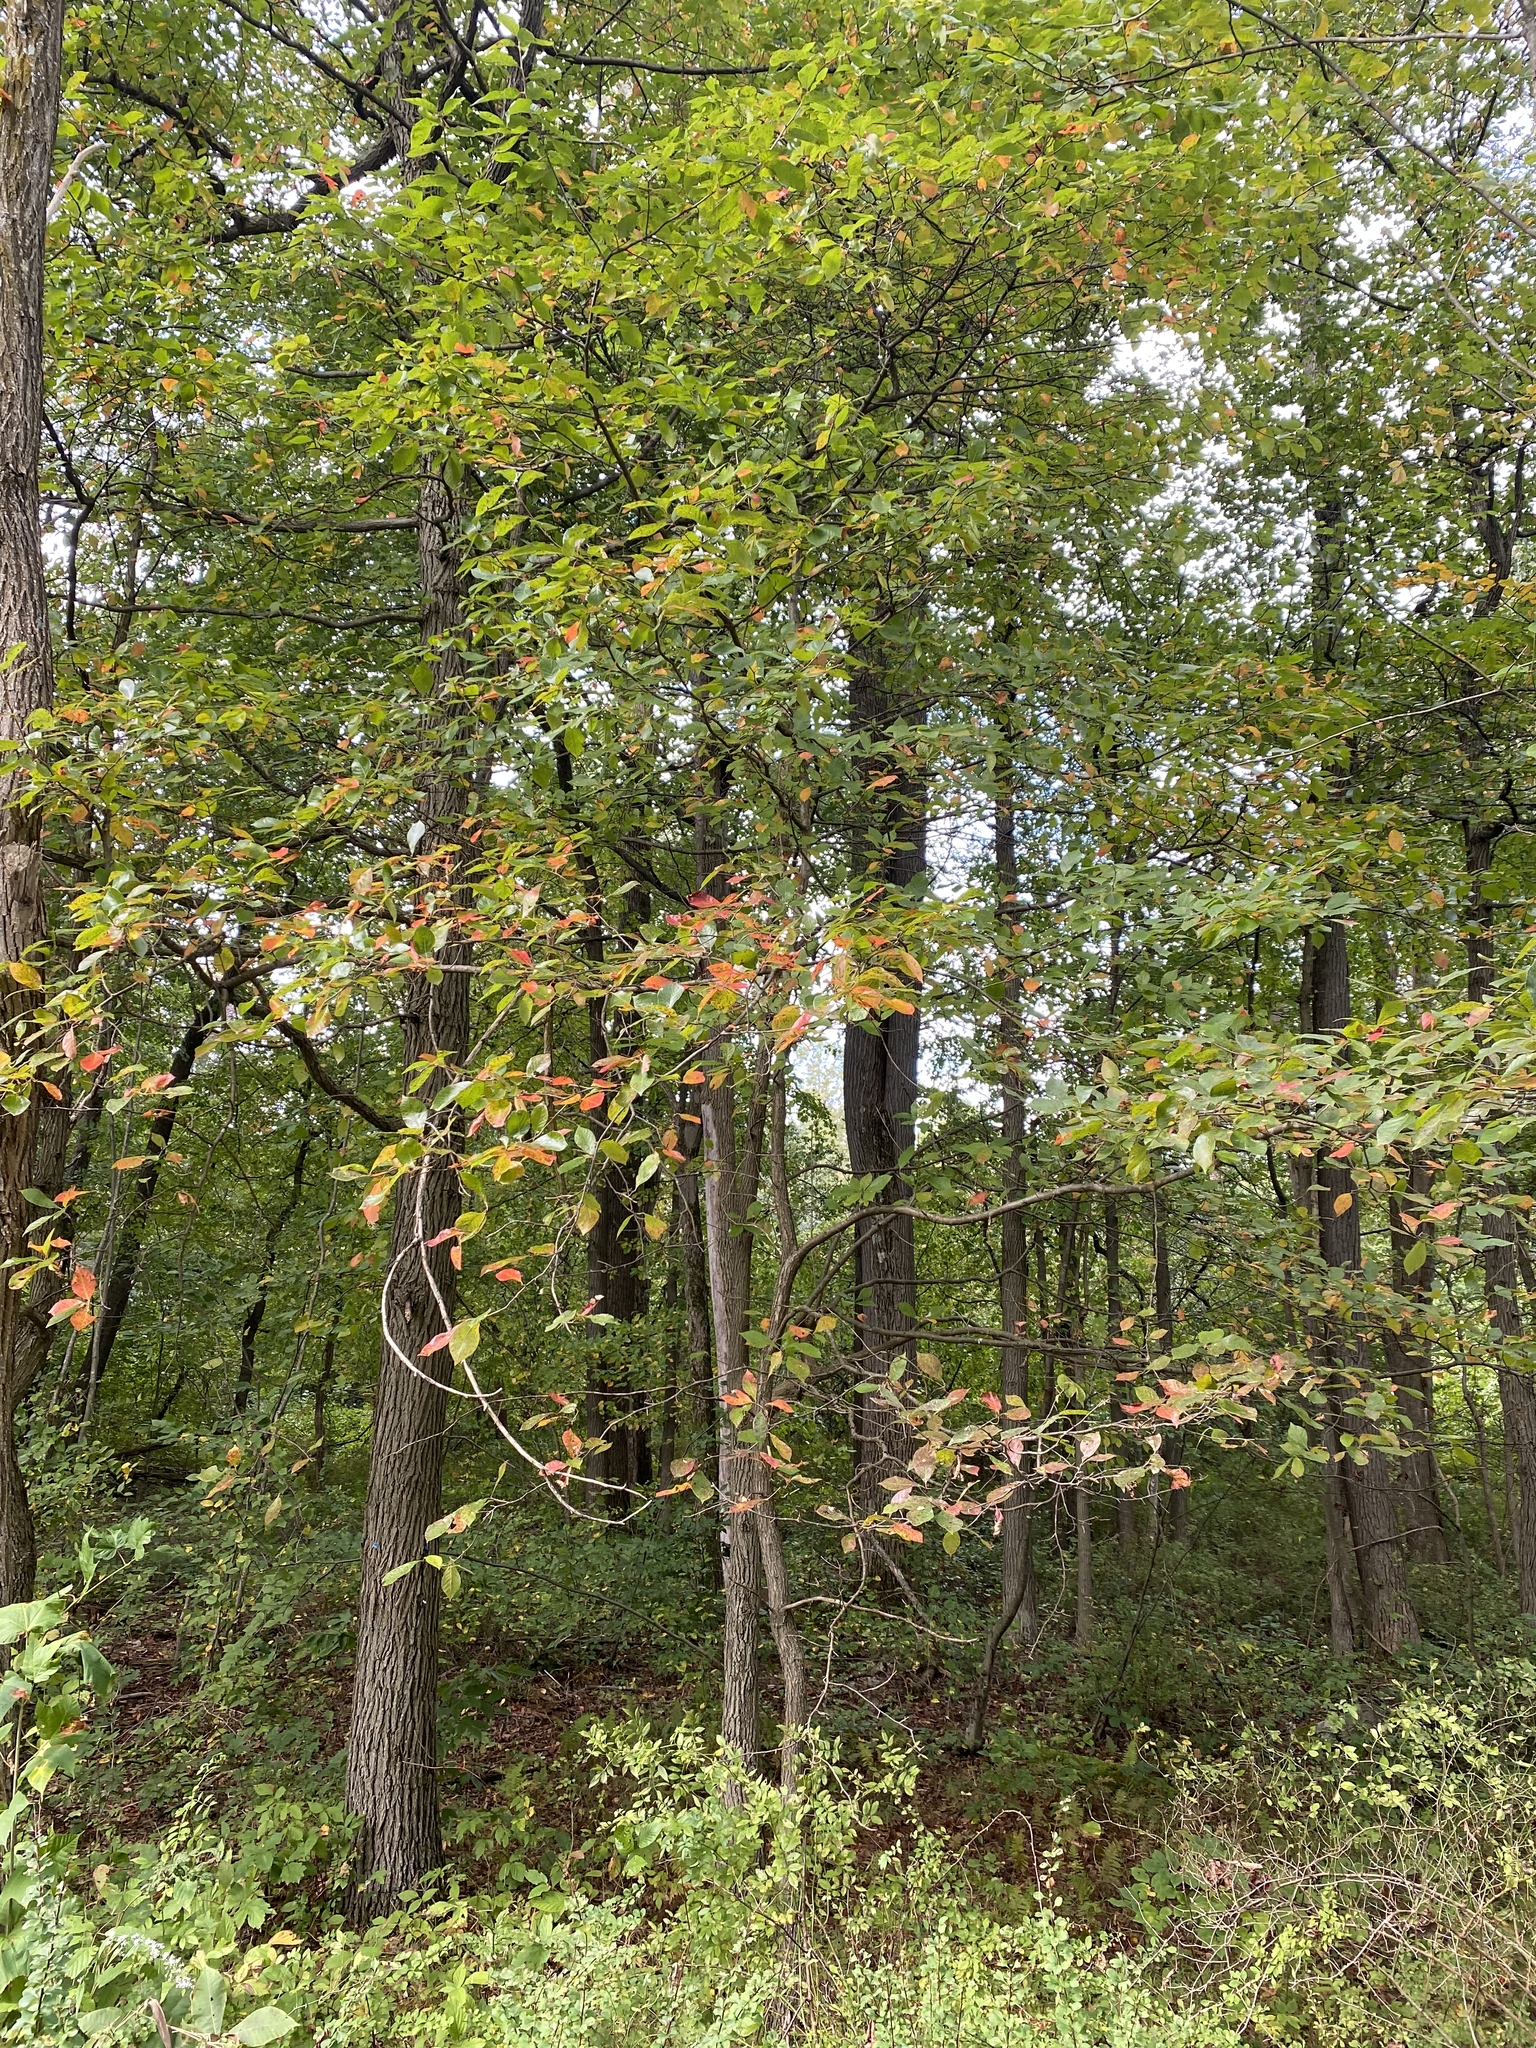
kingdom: Plantae
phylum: Tracheophyta
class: Magnoliopsida
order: Cornales
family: Nyssaceae
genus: Nyssa
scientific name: Nyssa sylvatica
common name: Black tupelo
